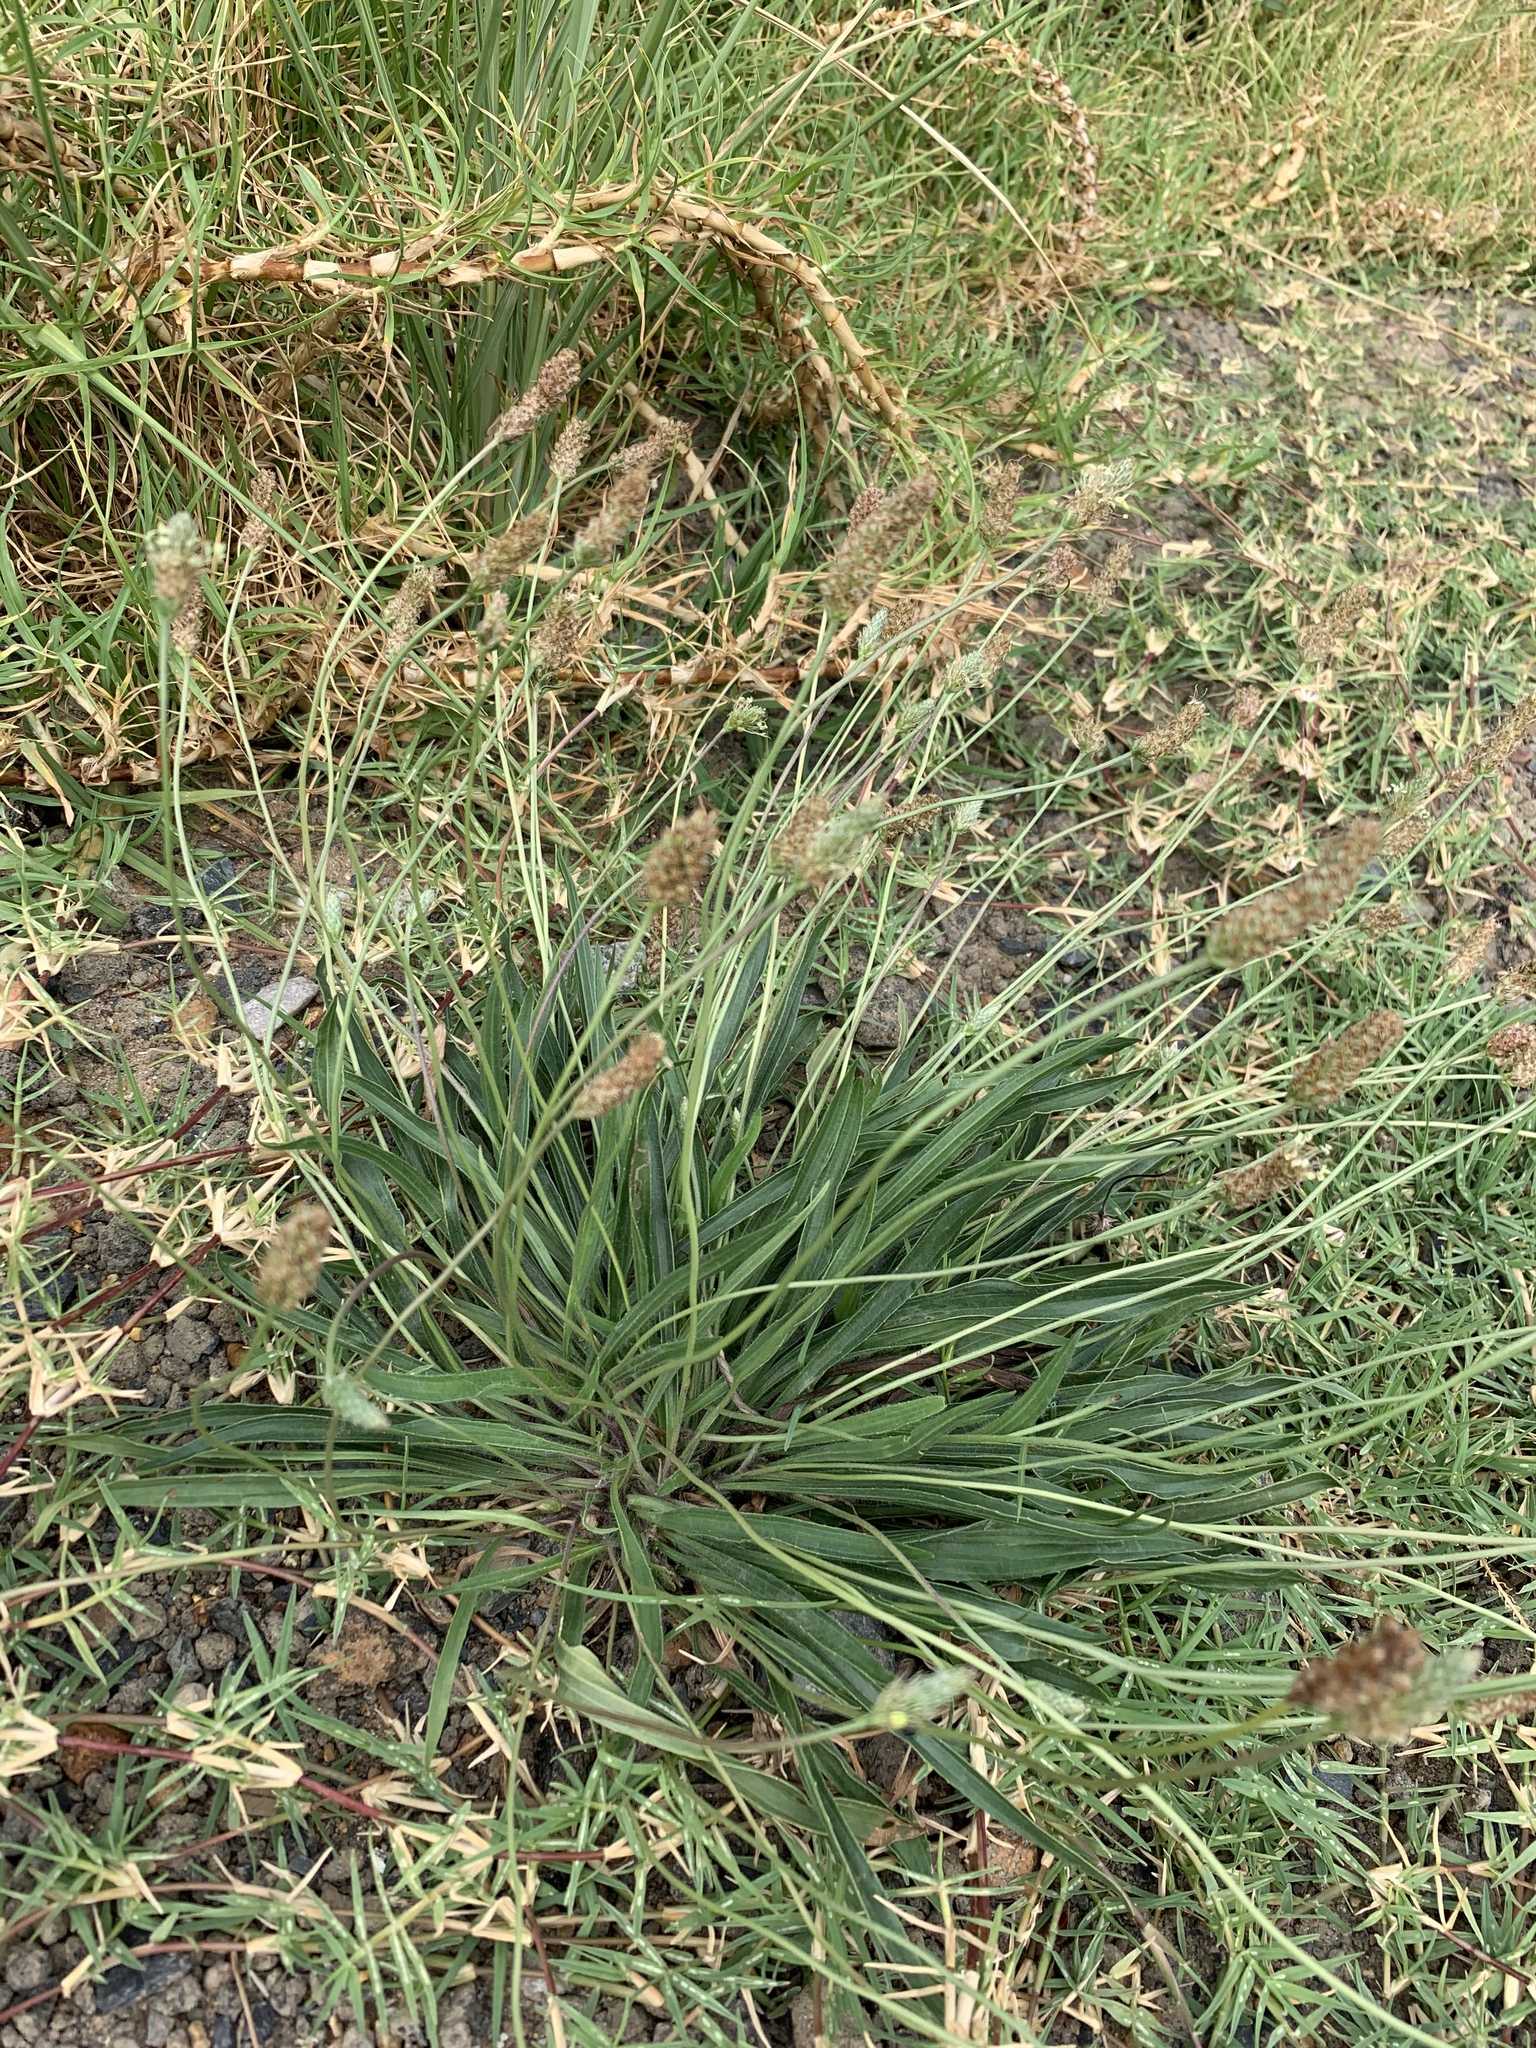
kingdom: Plantae
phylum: Tracheophyta
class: Magnoliopsida
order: Lamiales
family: Plantaginaceae
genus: Plantago
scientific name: Plantago lanceolata
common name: Ribwort plantain
